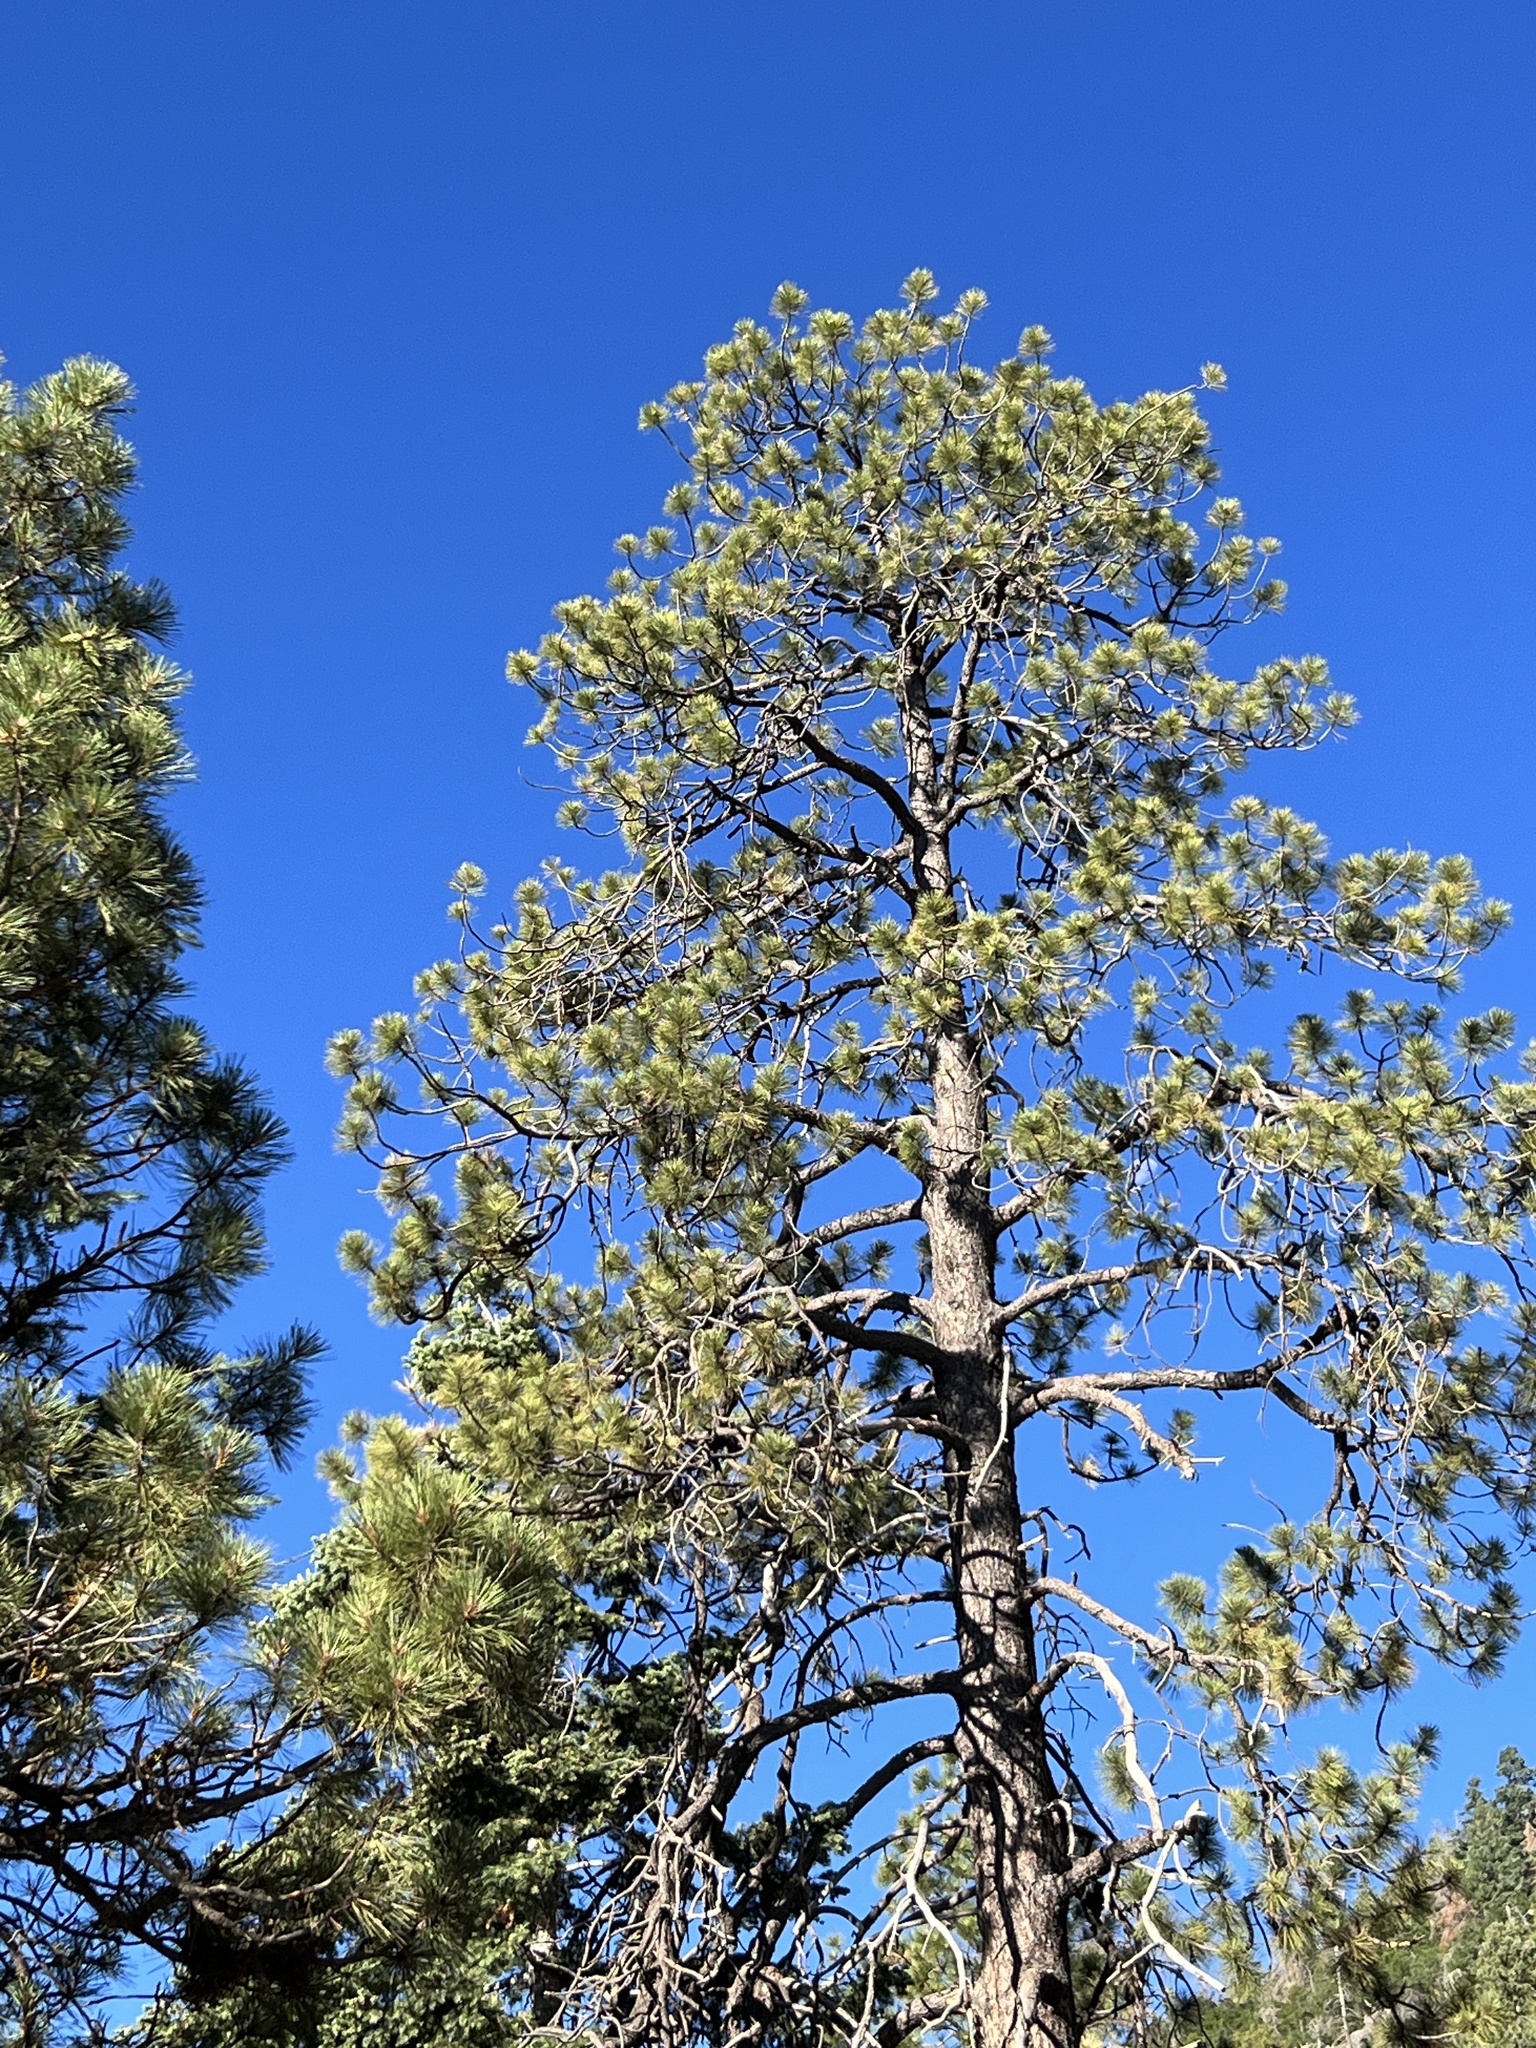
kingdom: Plantae
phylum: Tracheophyta
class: Pinopsida
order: Pinales
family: Pinaceae
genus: Pinus
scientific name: Pinus ponderosa
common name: Western yellow-pine
